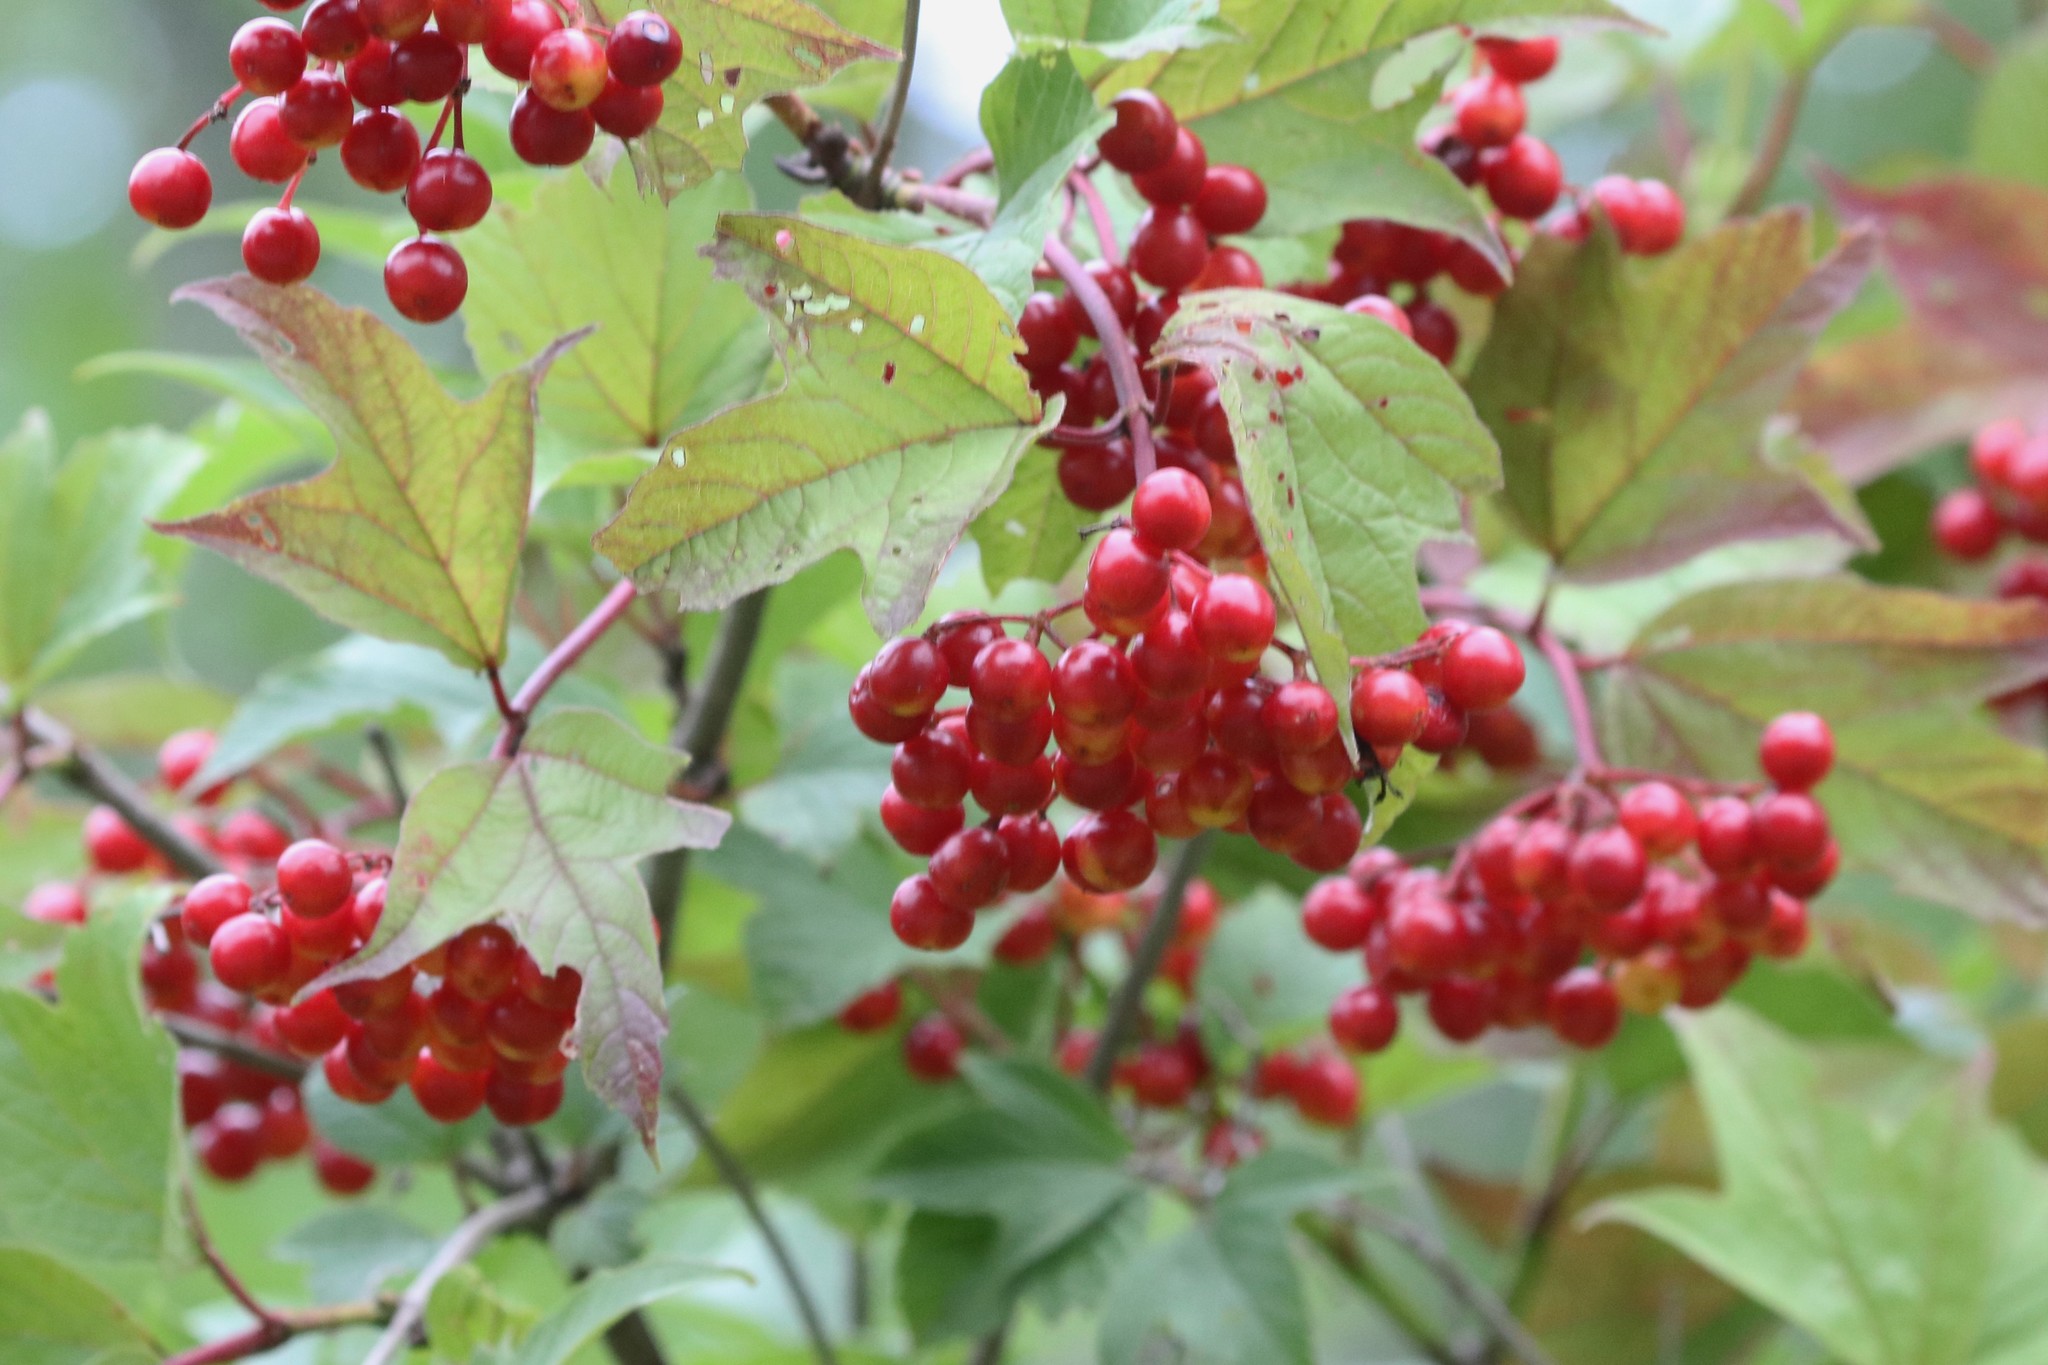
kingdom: Plantae
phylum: Tracheophyta
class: Magnoliopsida
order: Dipsacales
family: Viburnaceae
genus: Viburnum
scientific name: Viburnum opulus
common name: Guelder-rose
